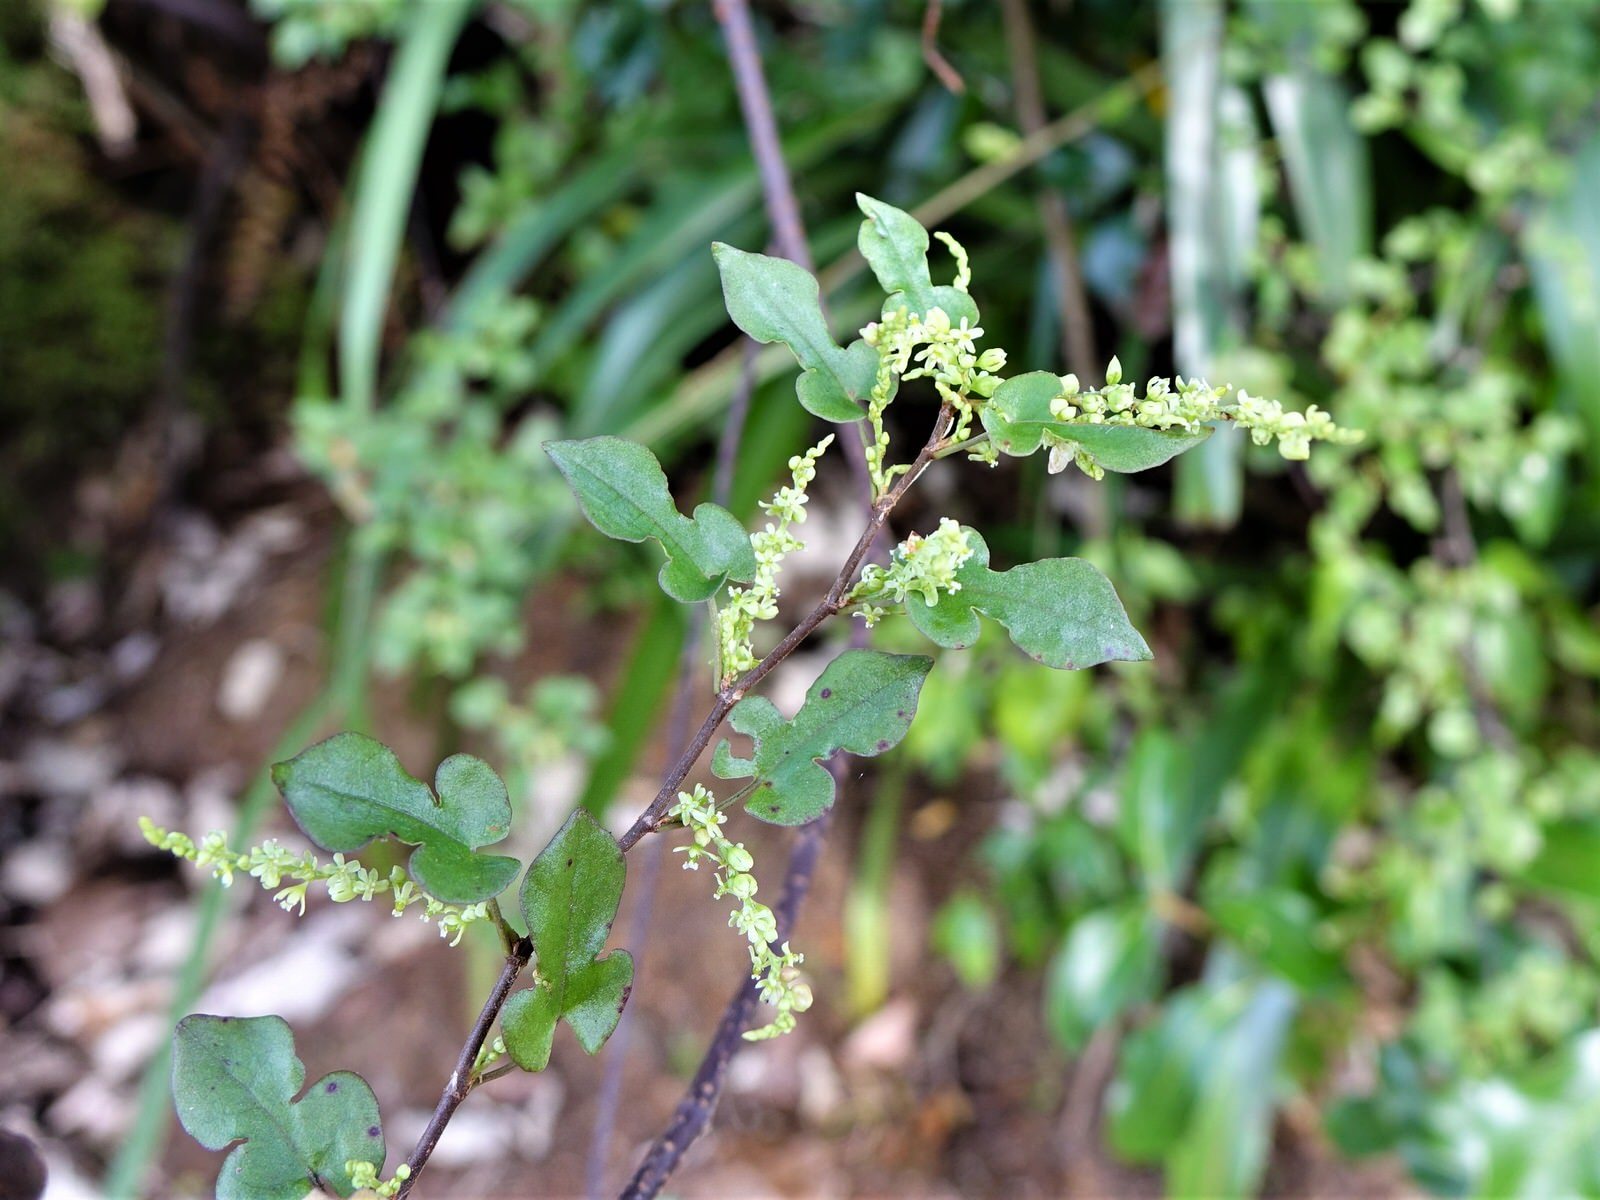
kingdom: Plantae
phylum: Tracheophyta
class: Magnoliopsida
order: Caryophyllales
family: Polygonaceae
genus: Muehlenbeckia
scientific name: Muehlenbeckia australis
